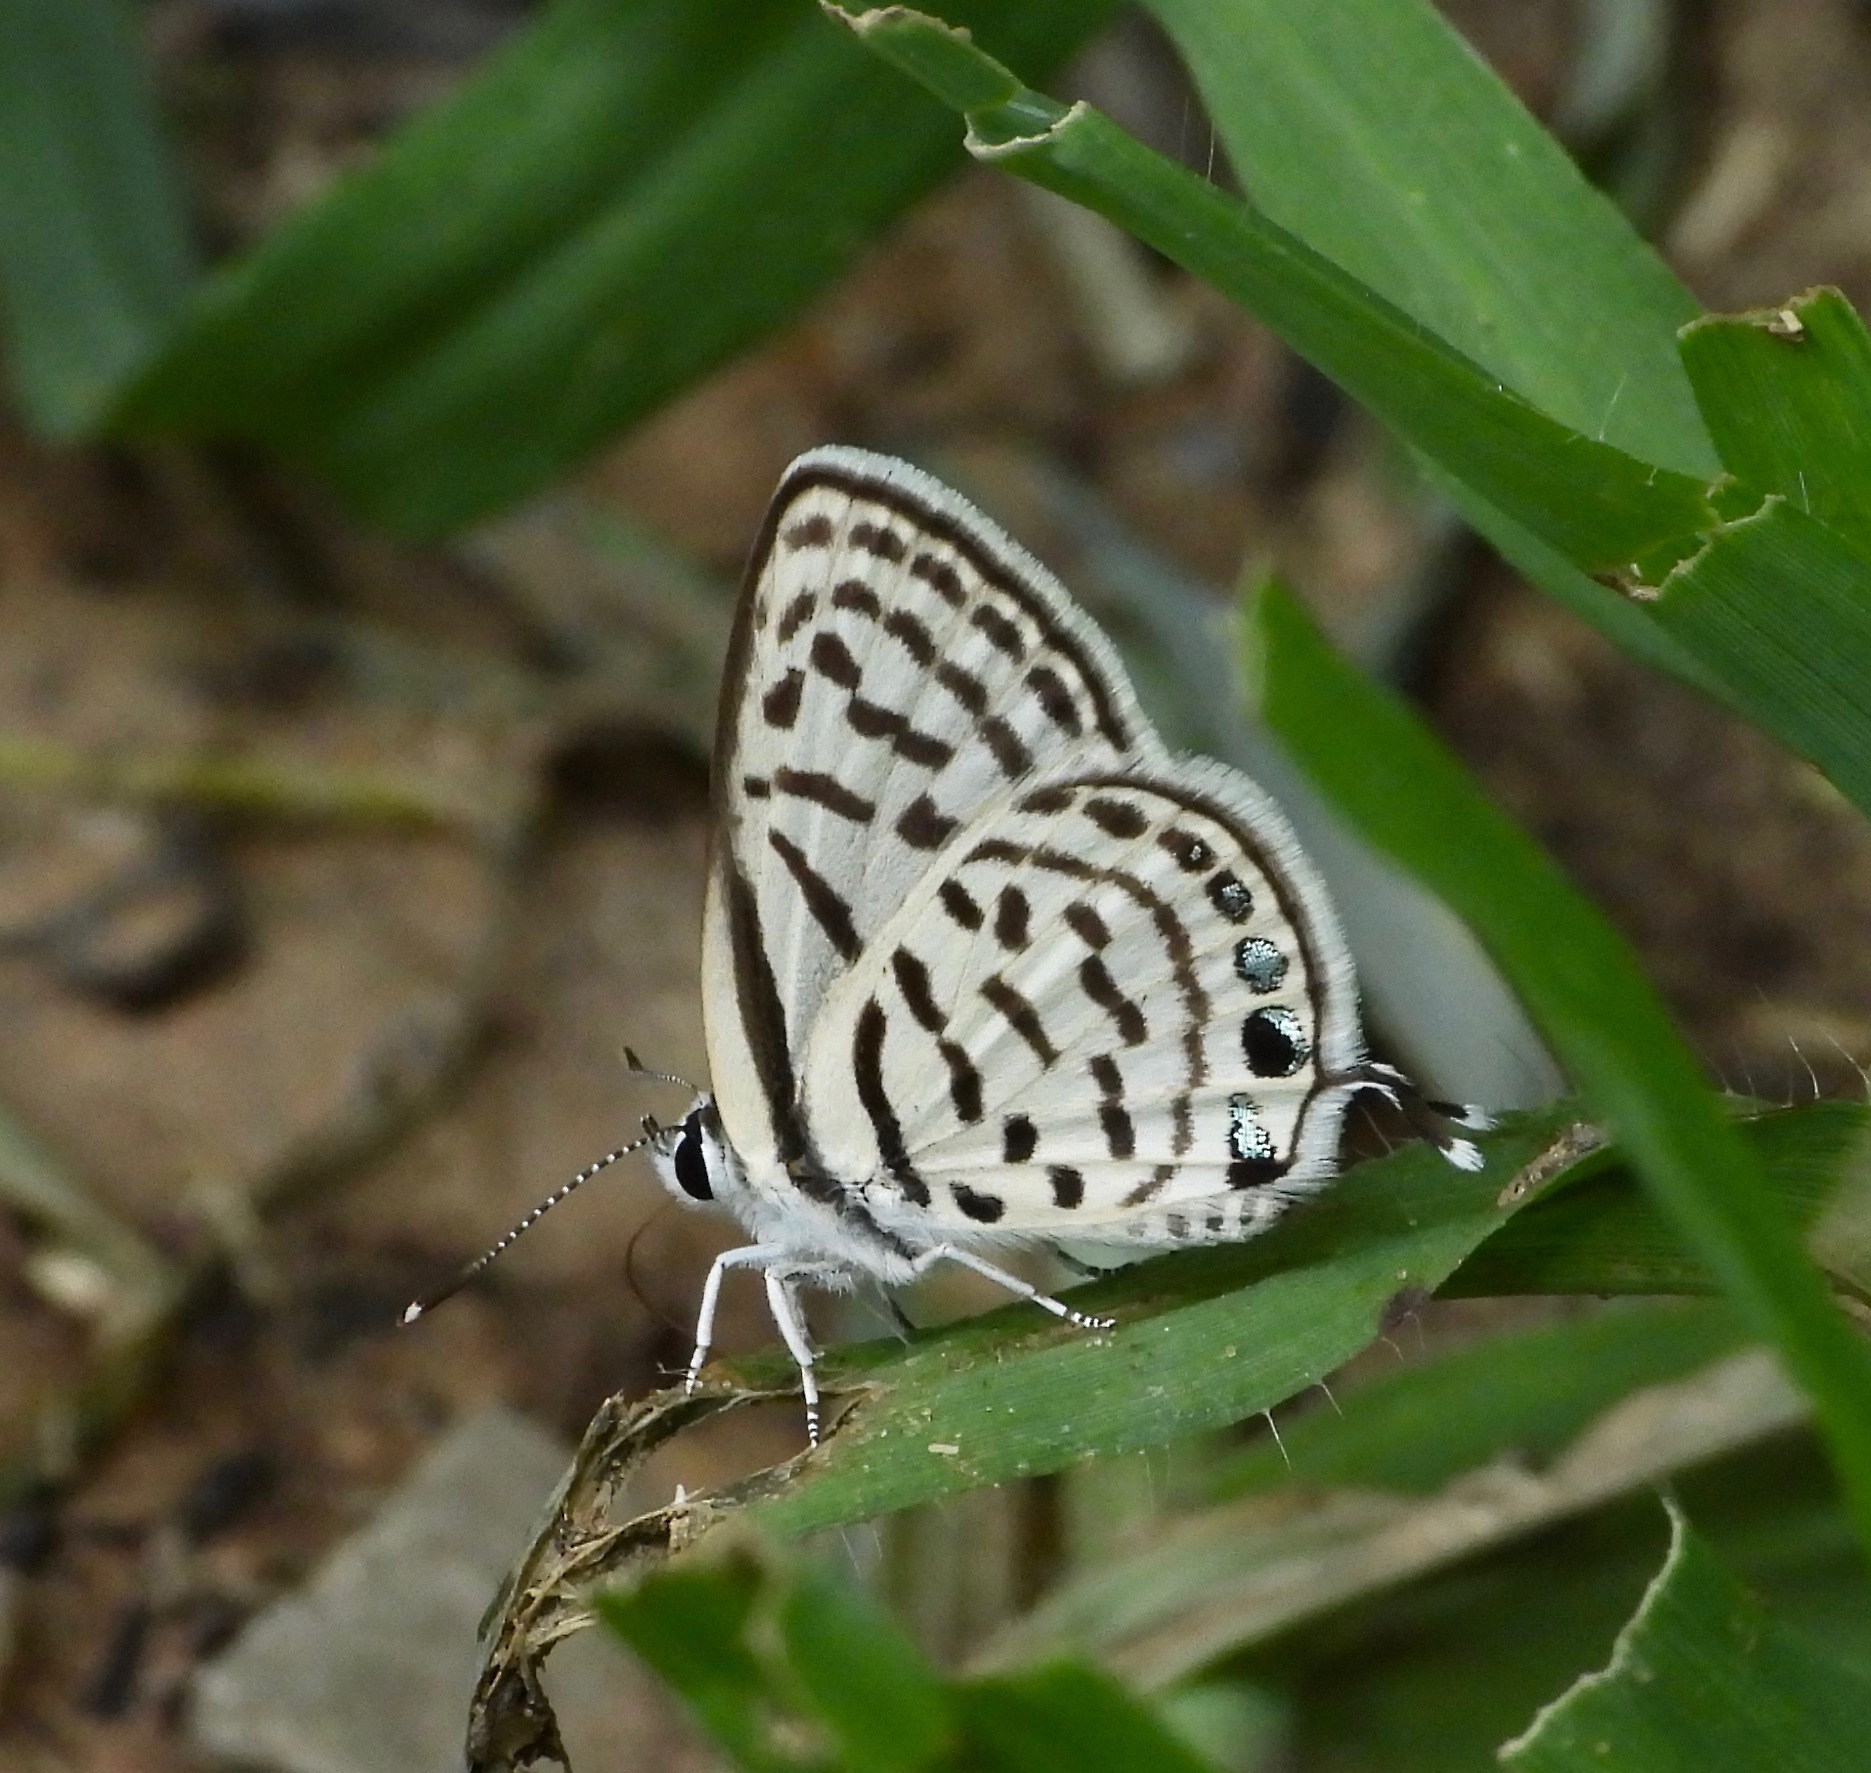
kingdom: Animalia
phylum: Arthropoda
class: Insecta
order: Lepidoptera
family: Lycaenidae
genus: Tarucus
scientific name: Tarucus balkanica
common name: Little tiger blue
